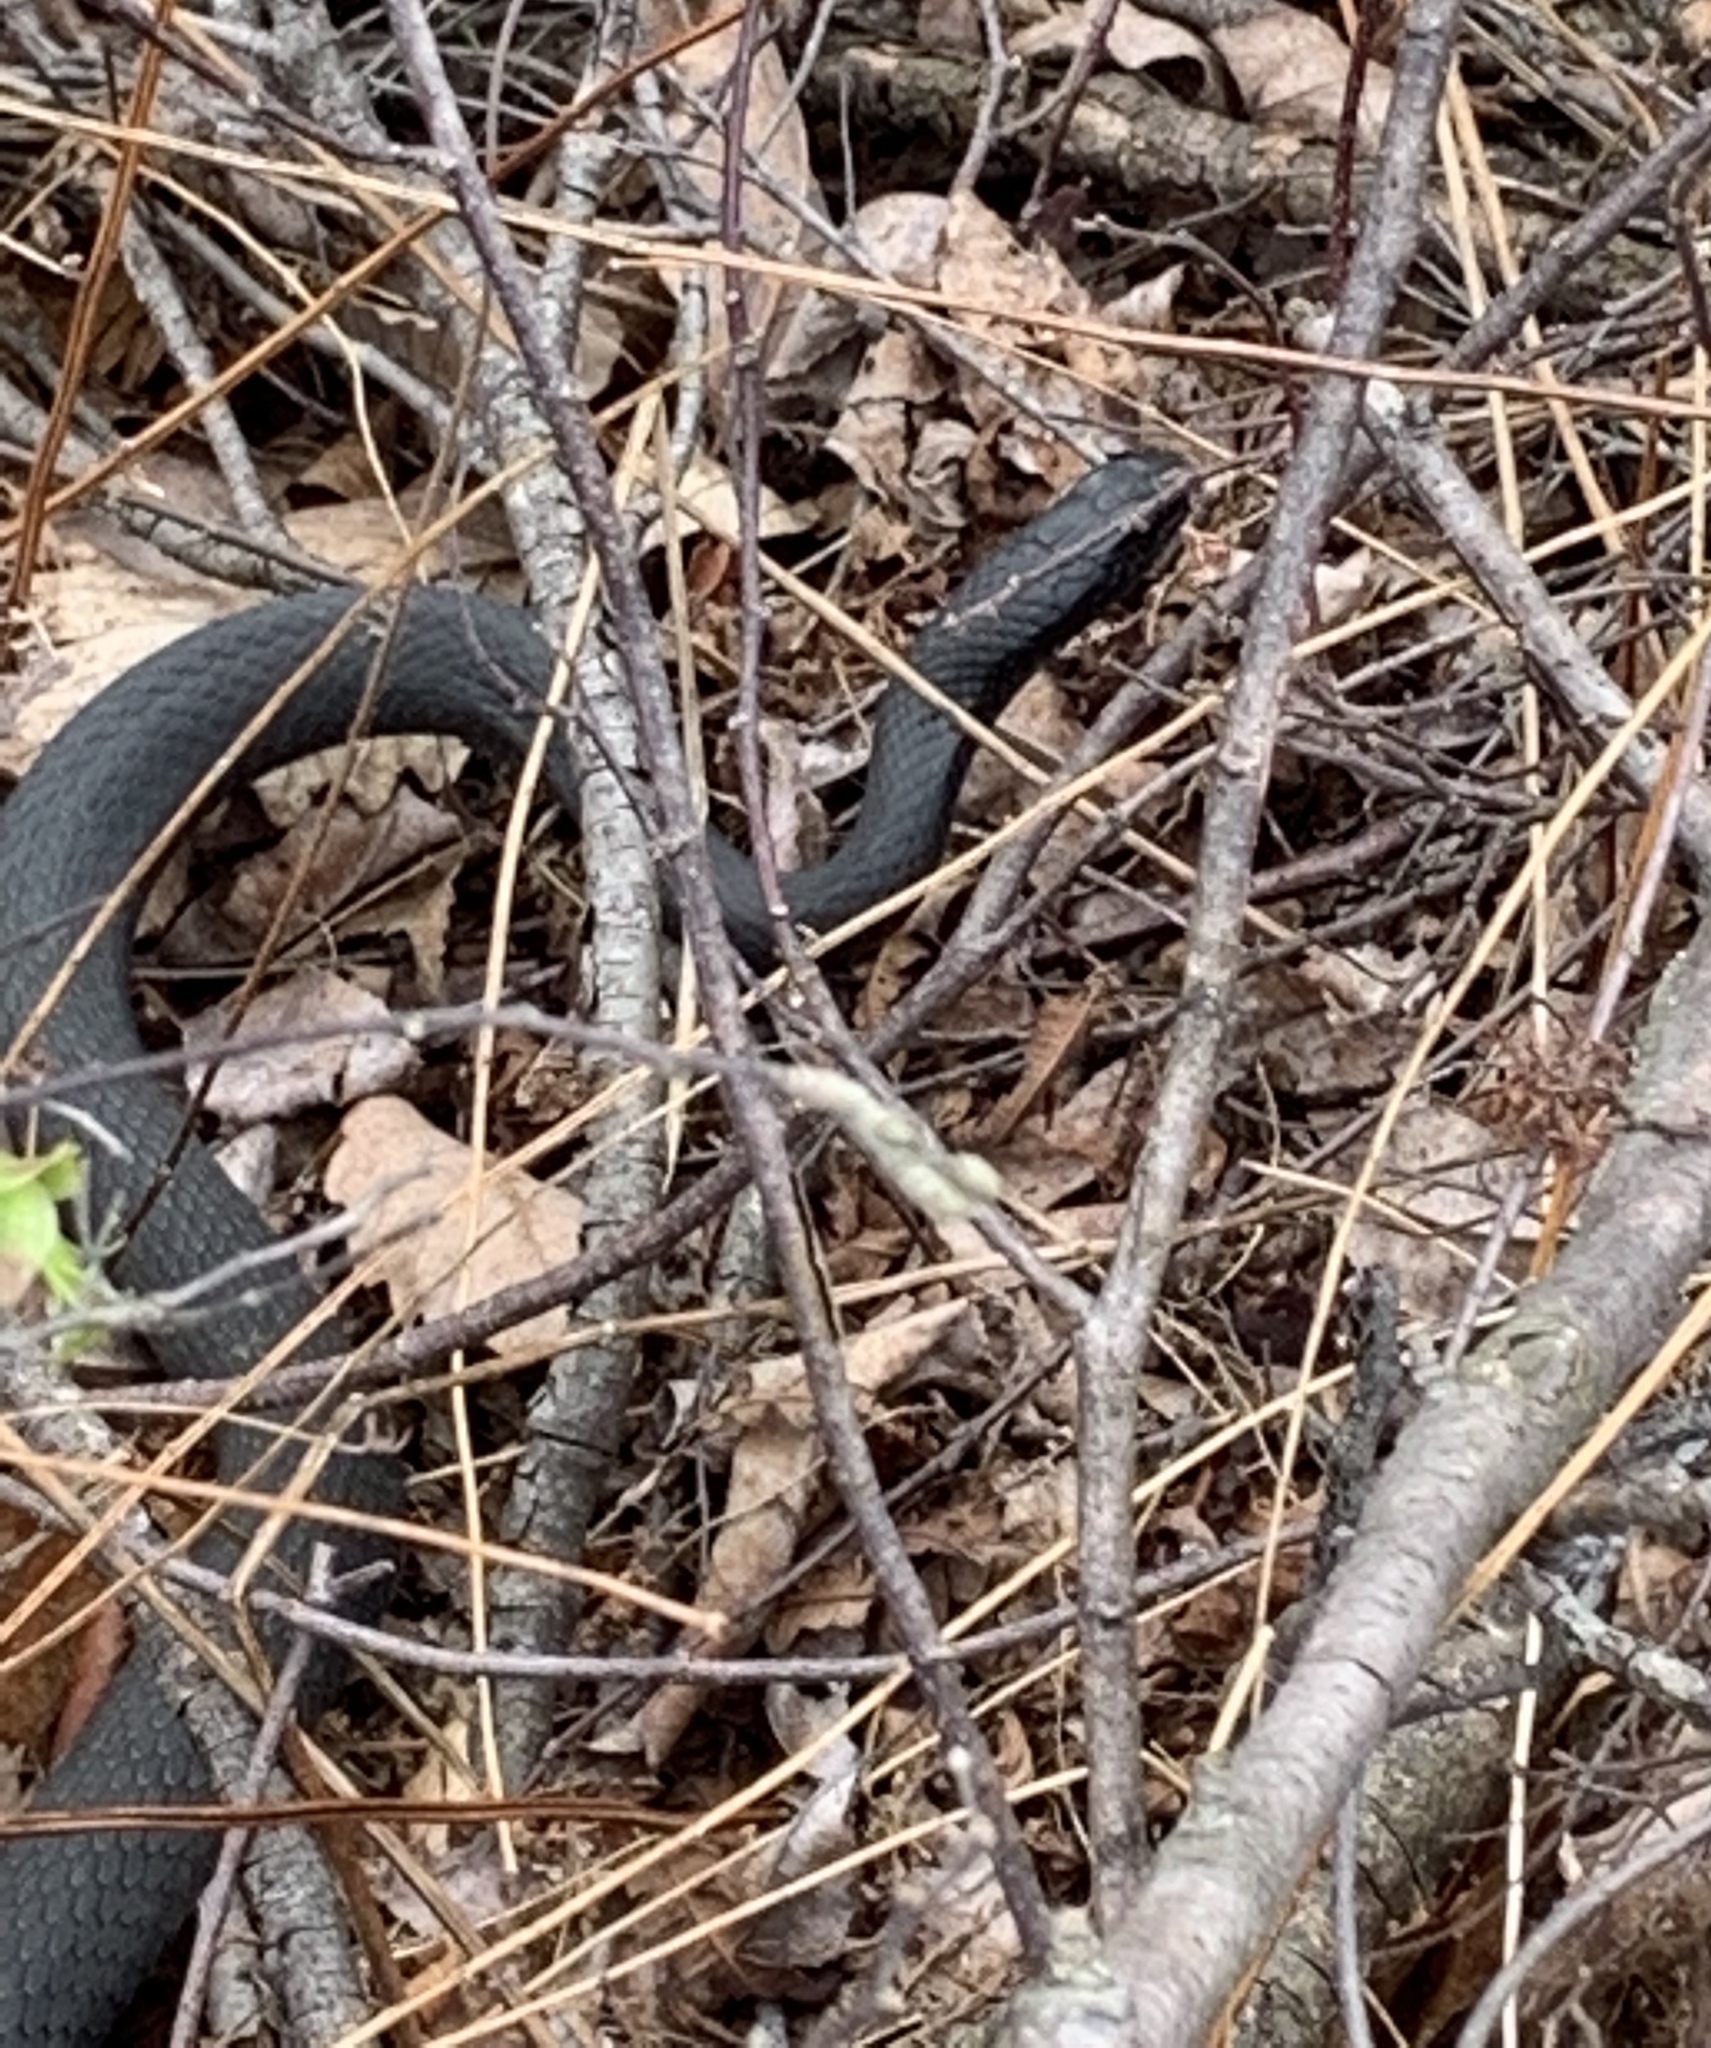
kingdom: Animalia
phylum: Chordata
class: Squamata
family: Colubridae
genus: Coluber
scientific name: Coluber constrictor
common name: Eastern racer
